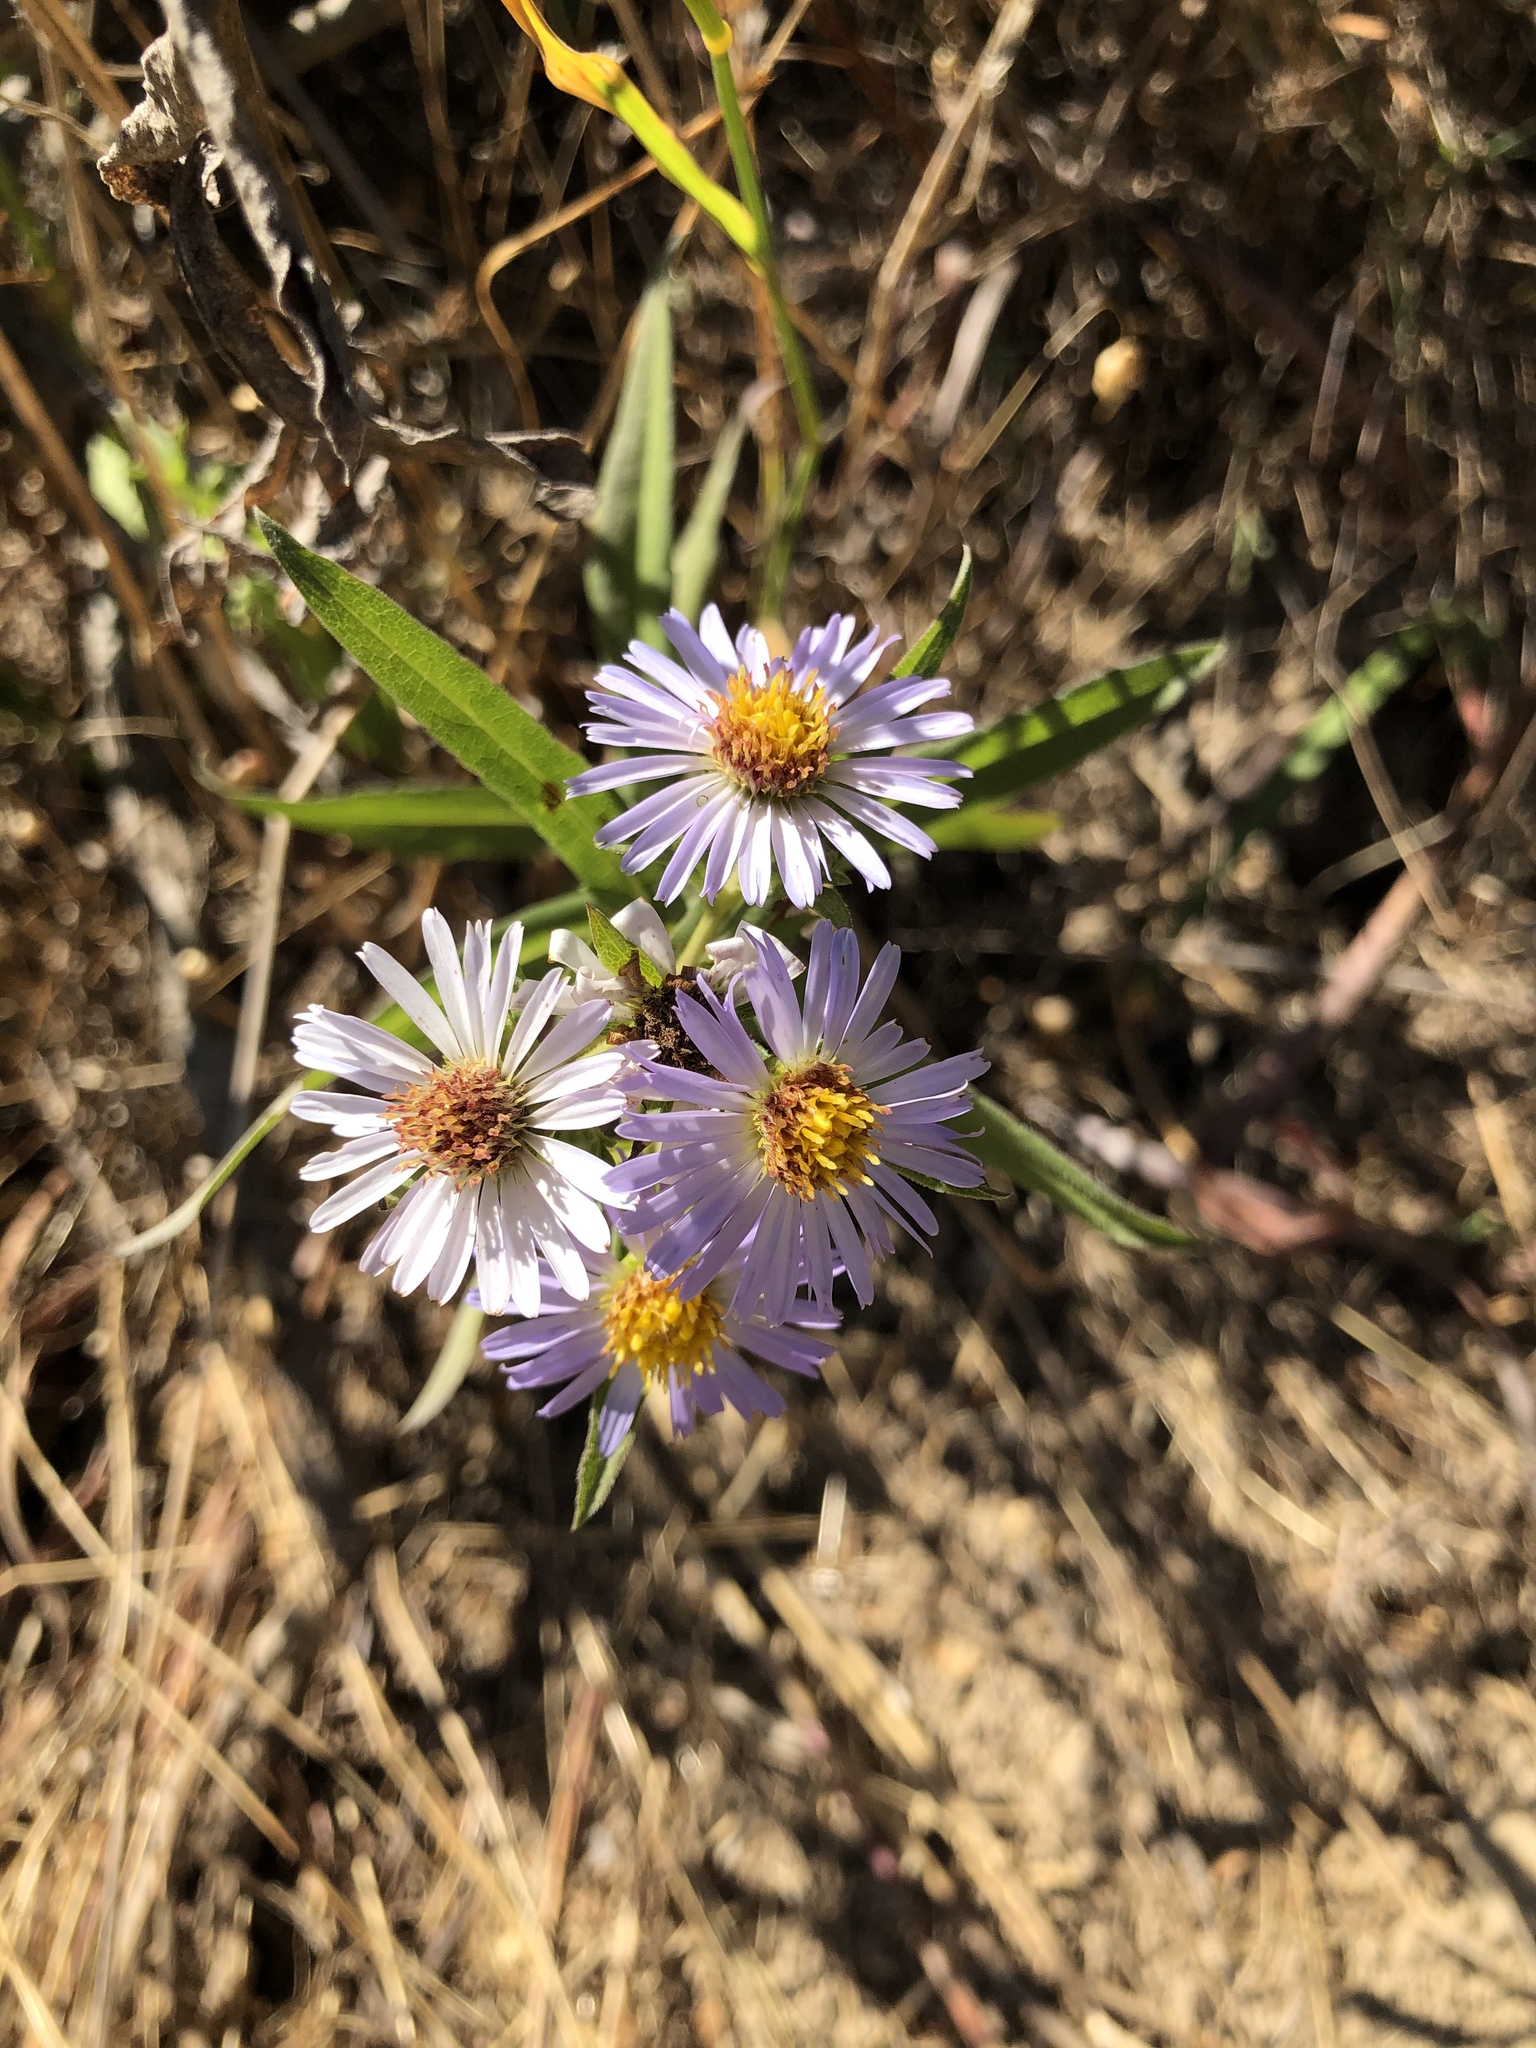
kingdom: Plantae
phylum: Tracheophyta
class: Magnoliopsida
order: Asterales
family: Asteraceae
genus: Symphyotrichum
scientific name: Symphyotrichum chilense
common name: Pacific aster
